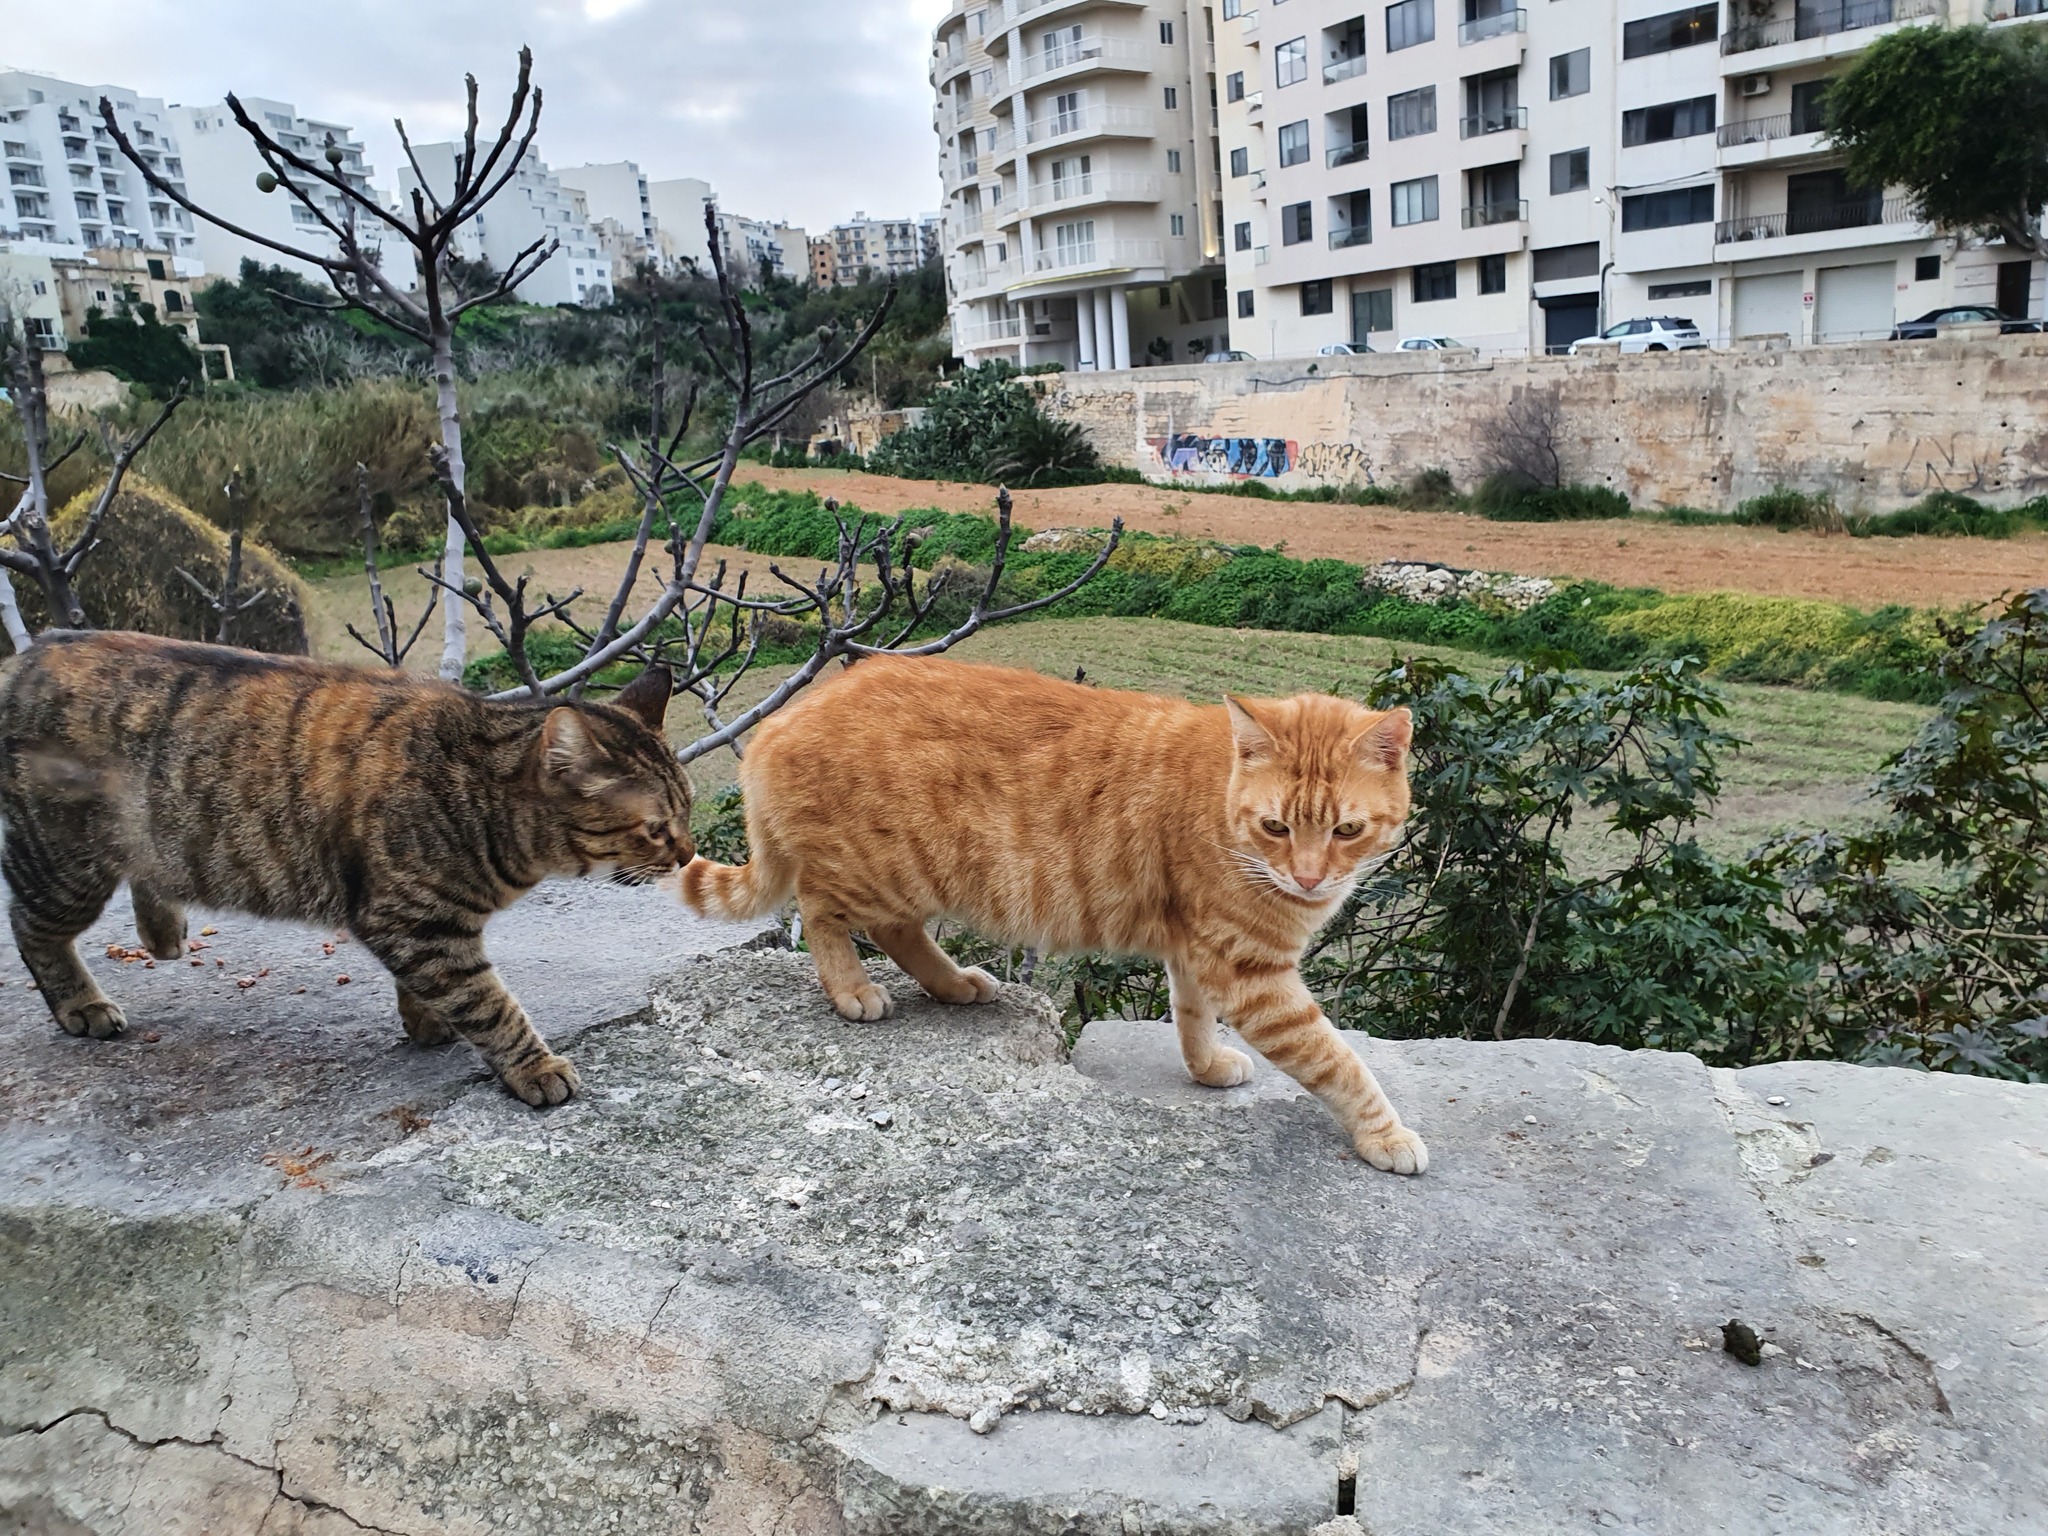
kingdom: Animalia
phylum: Chordata
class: Mammalia
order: Carnivora
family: Felidae
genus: Felis
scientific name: Felis catus
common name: Domestic cat
